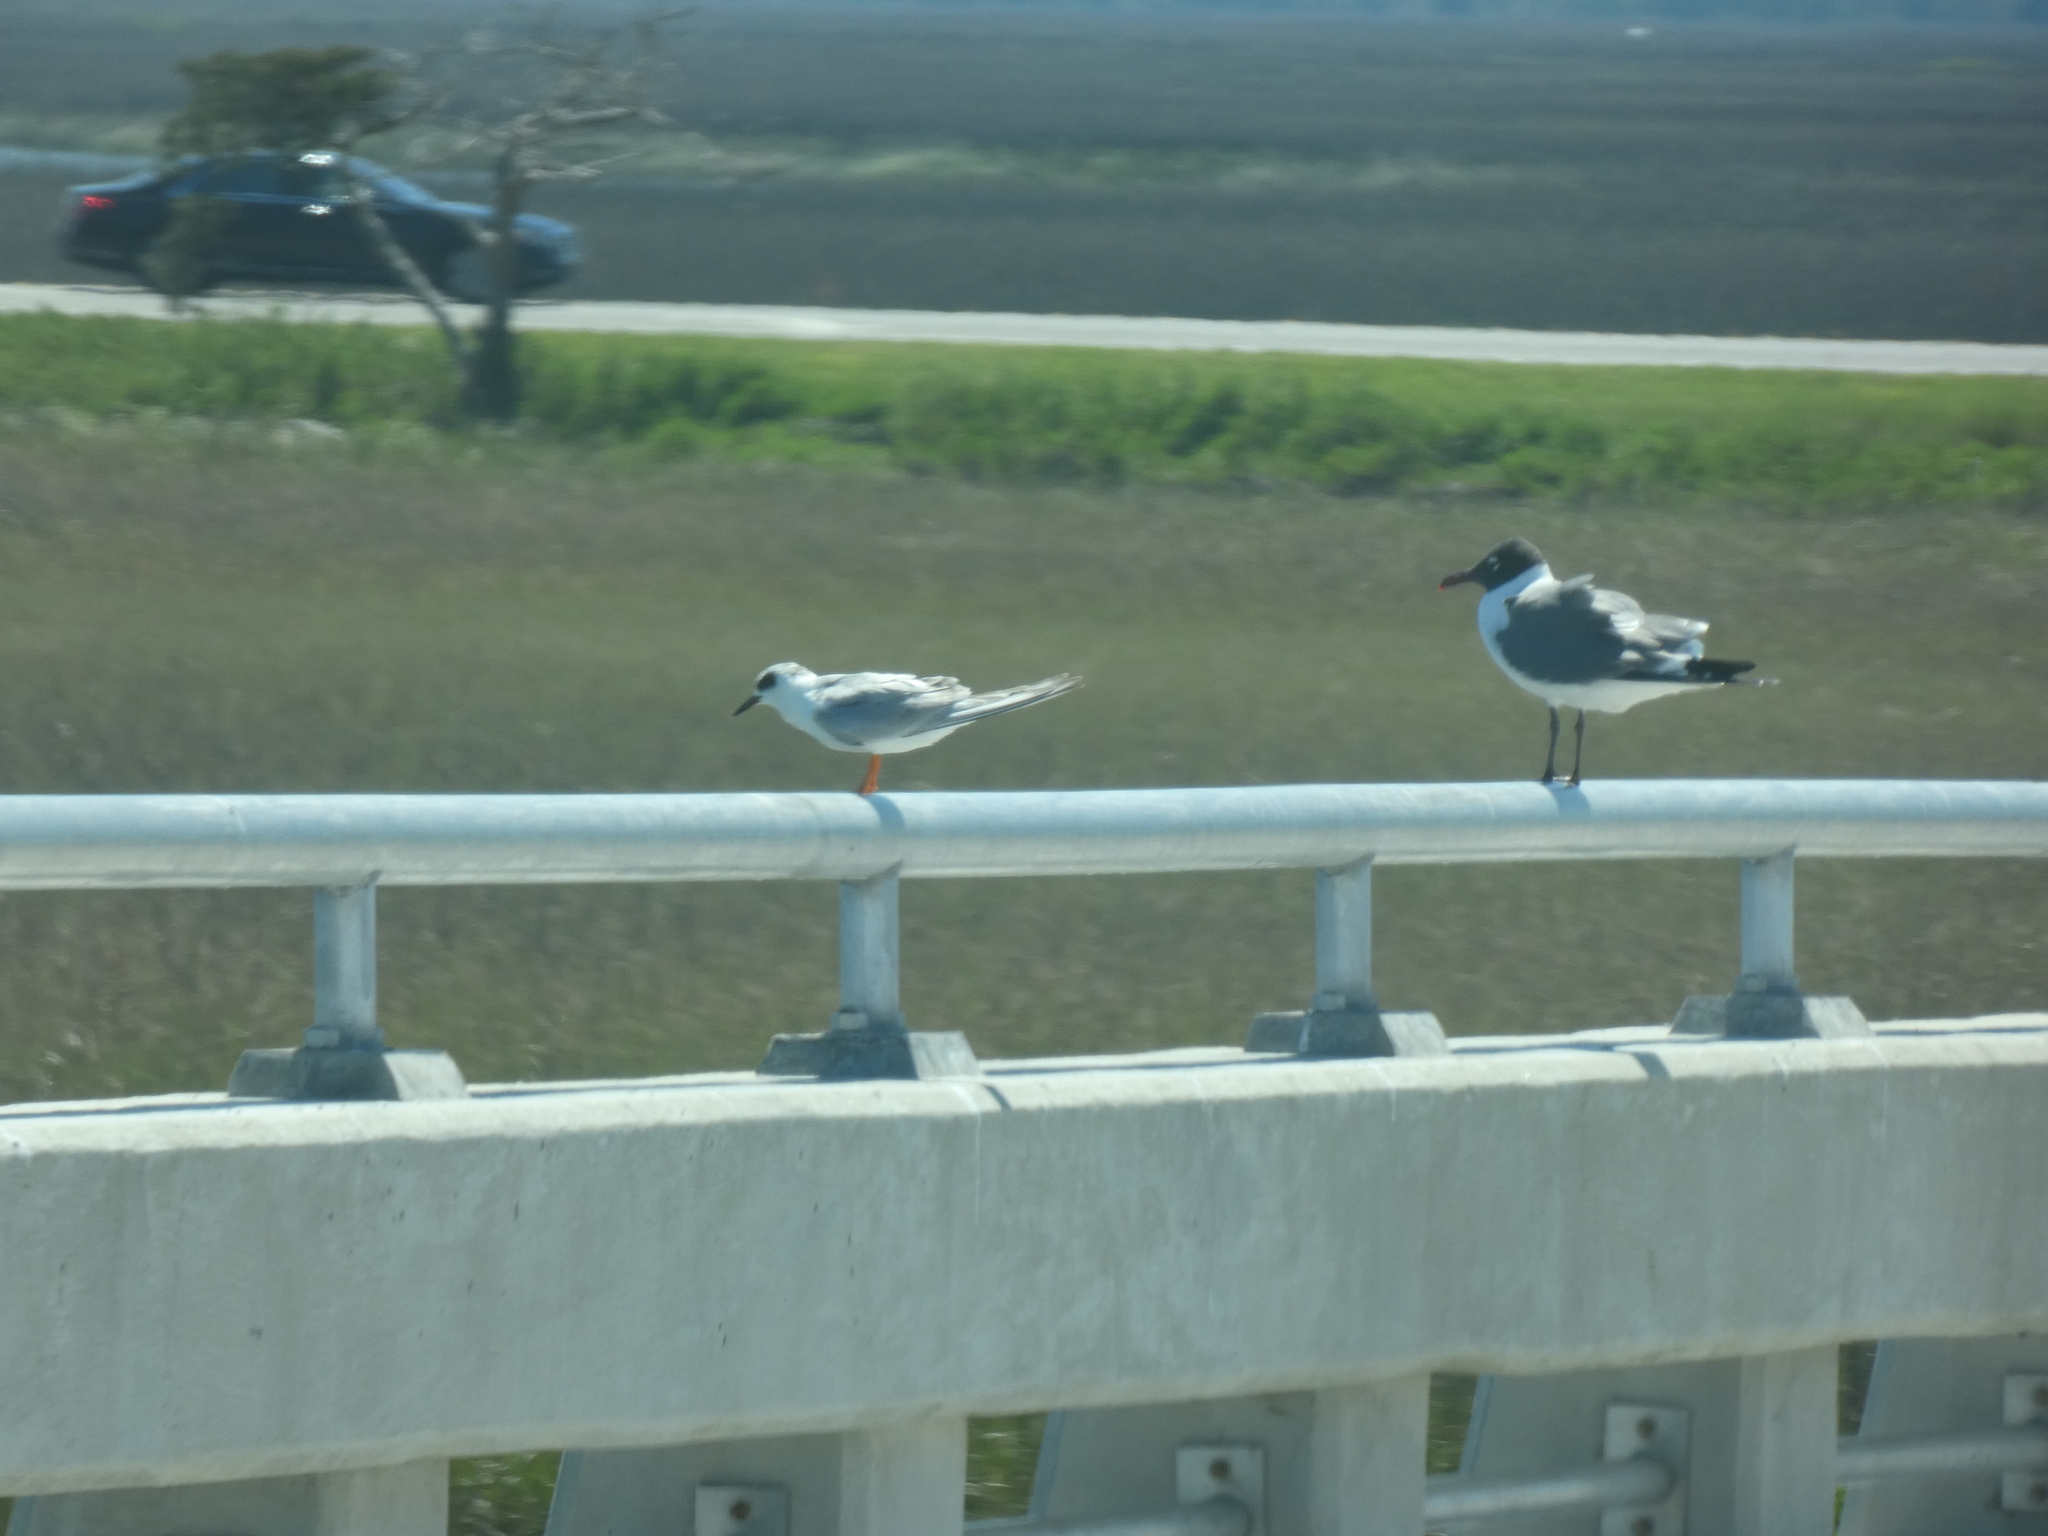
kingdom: Animalia
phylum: Chordata
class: Aves
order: Charadriiformes
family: Laridae
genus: Sterna
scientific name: Sterna forsteri
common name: Forster's tern
